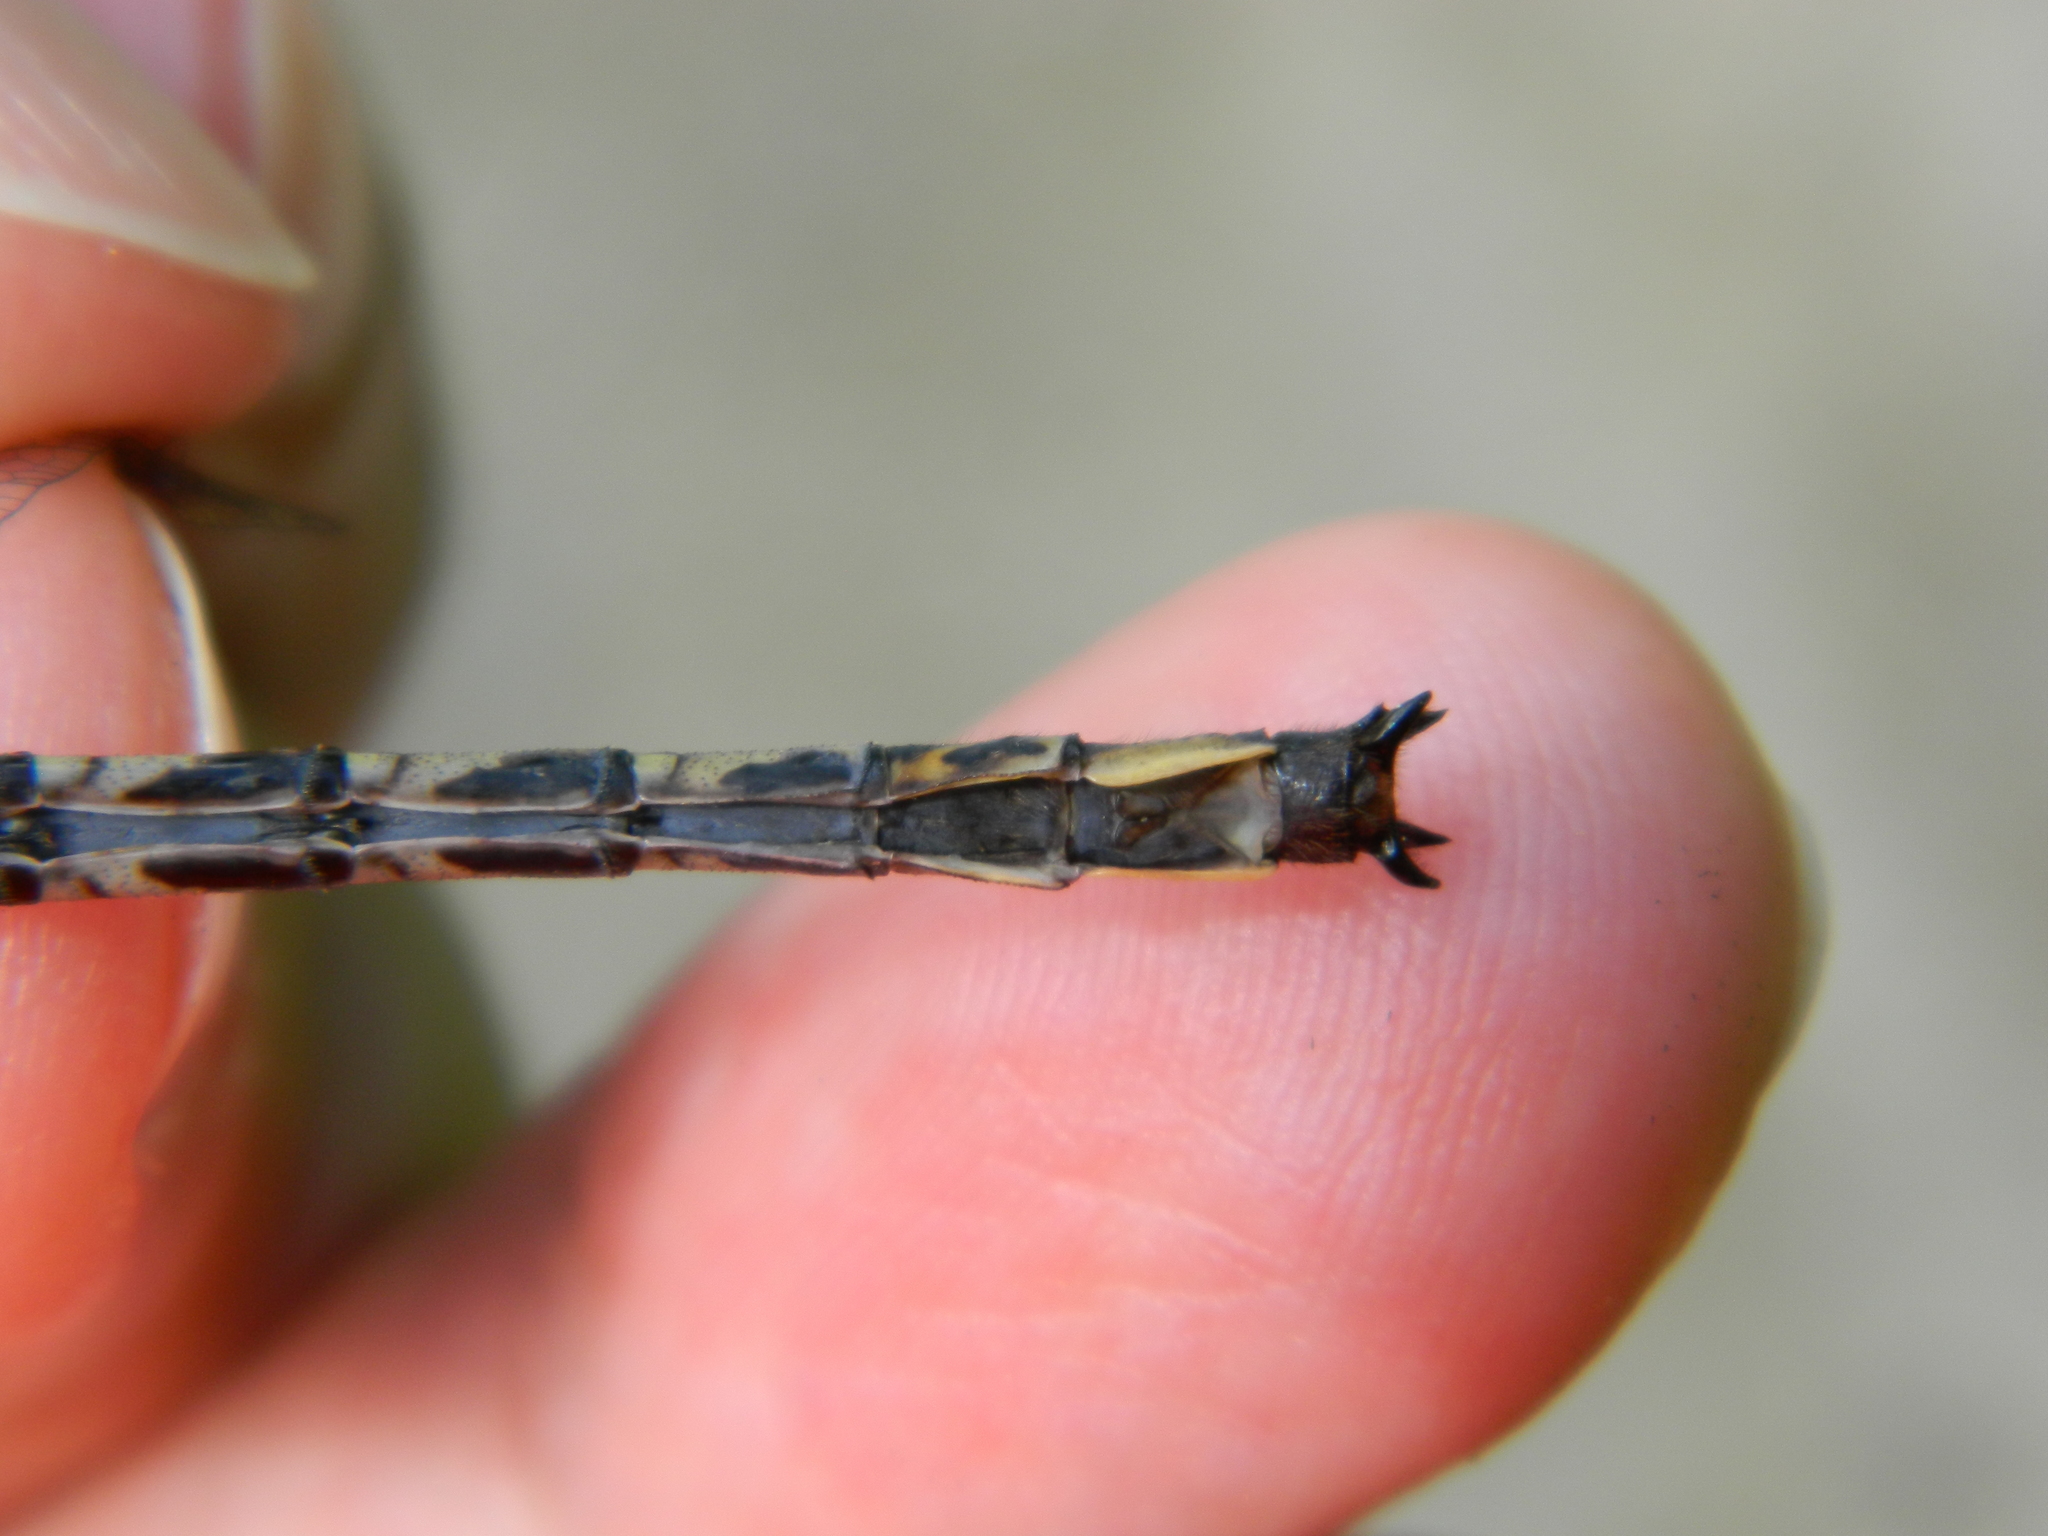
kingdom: Animalia
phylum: Arthropoda
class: Insecta
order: Odonata
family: Gomphidae
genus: Phanogomphus
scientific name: Phanogomphus spicatus
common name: Dusky clubtail
